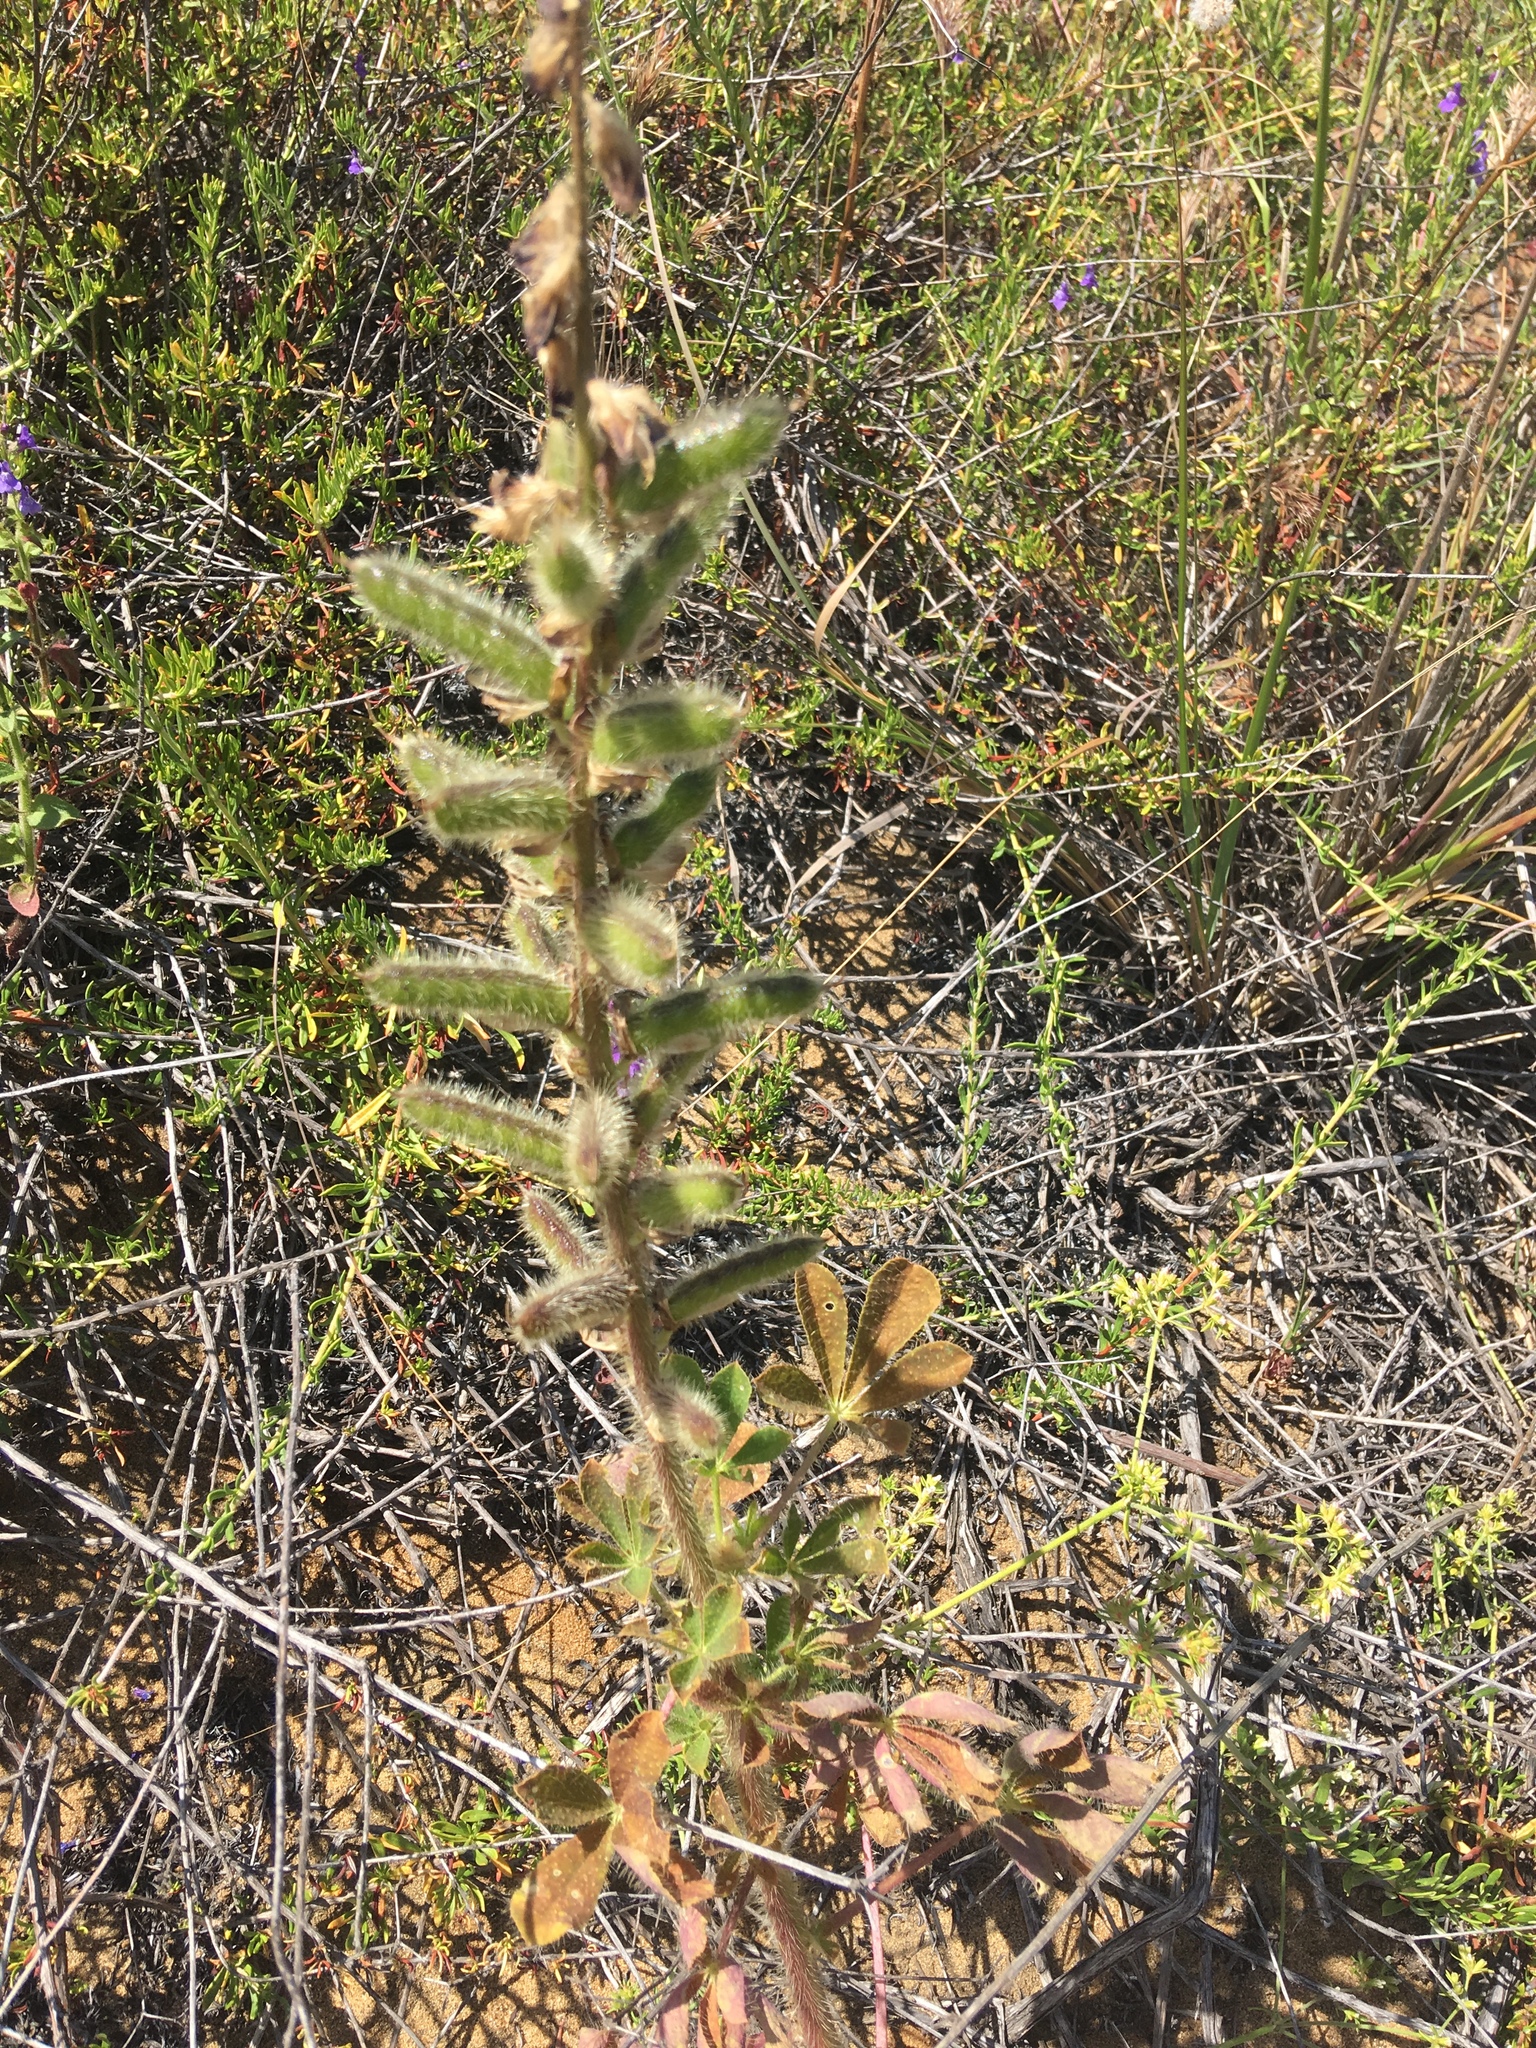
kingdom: Plantae
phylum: Tracheophyta
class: Magnoliopsida
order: Fabales
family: Fabaceae
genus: Lupinus
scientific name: Lupinus hirsutissimus
